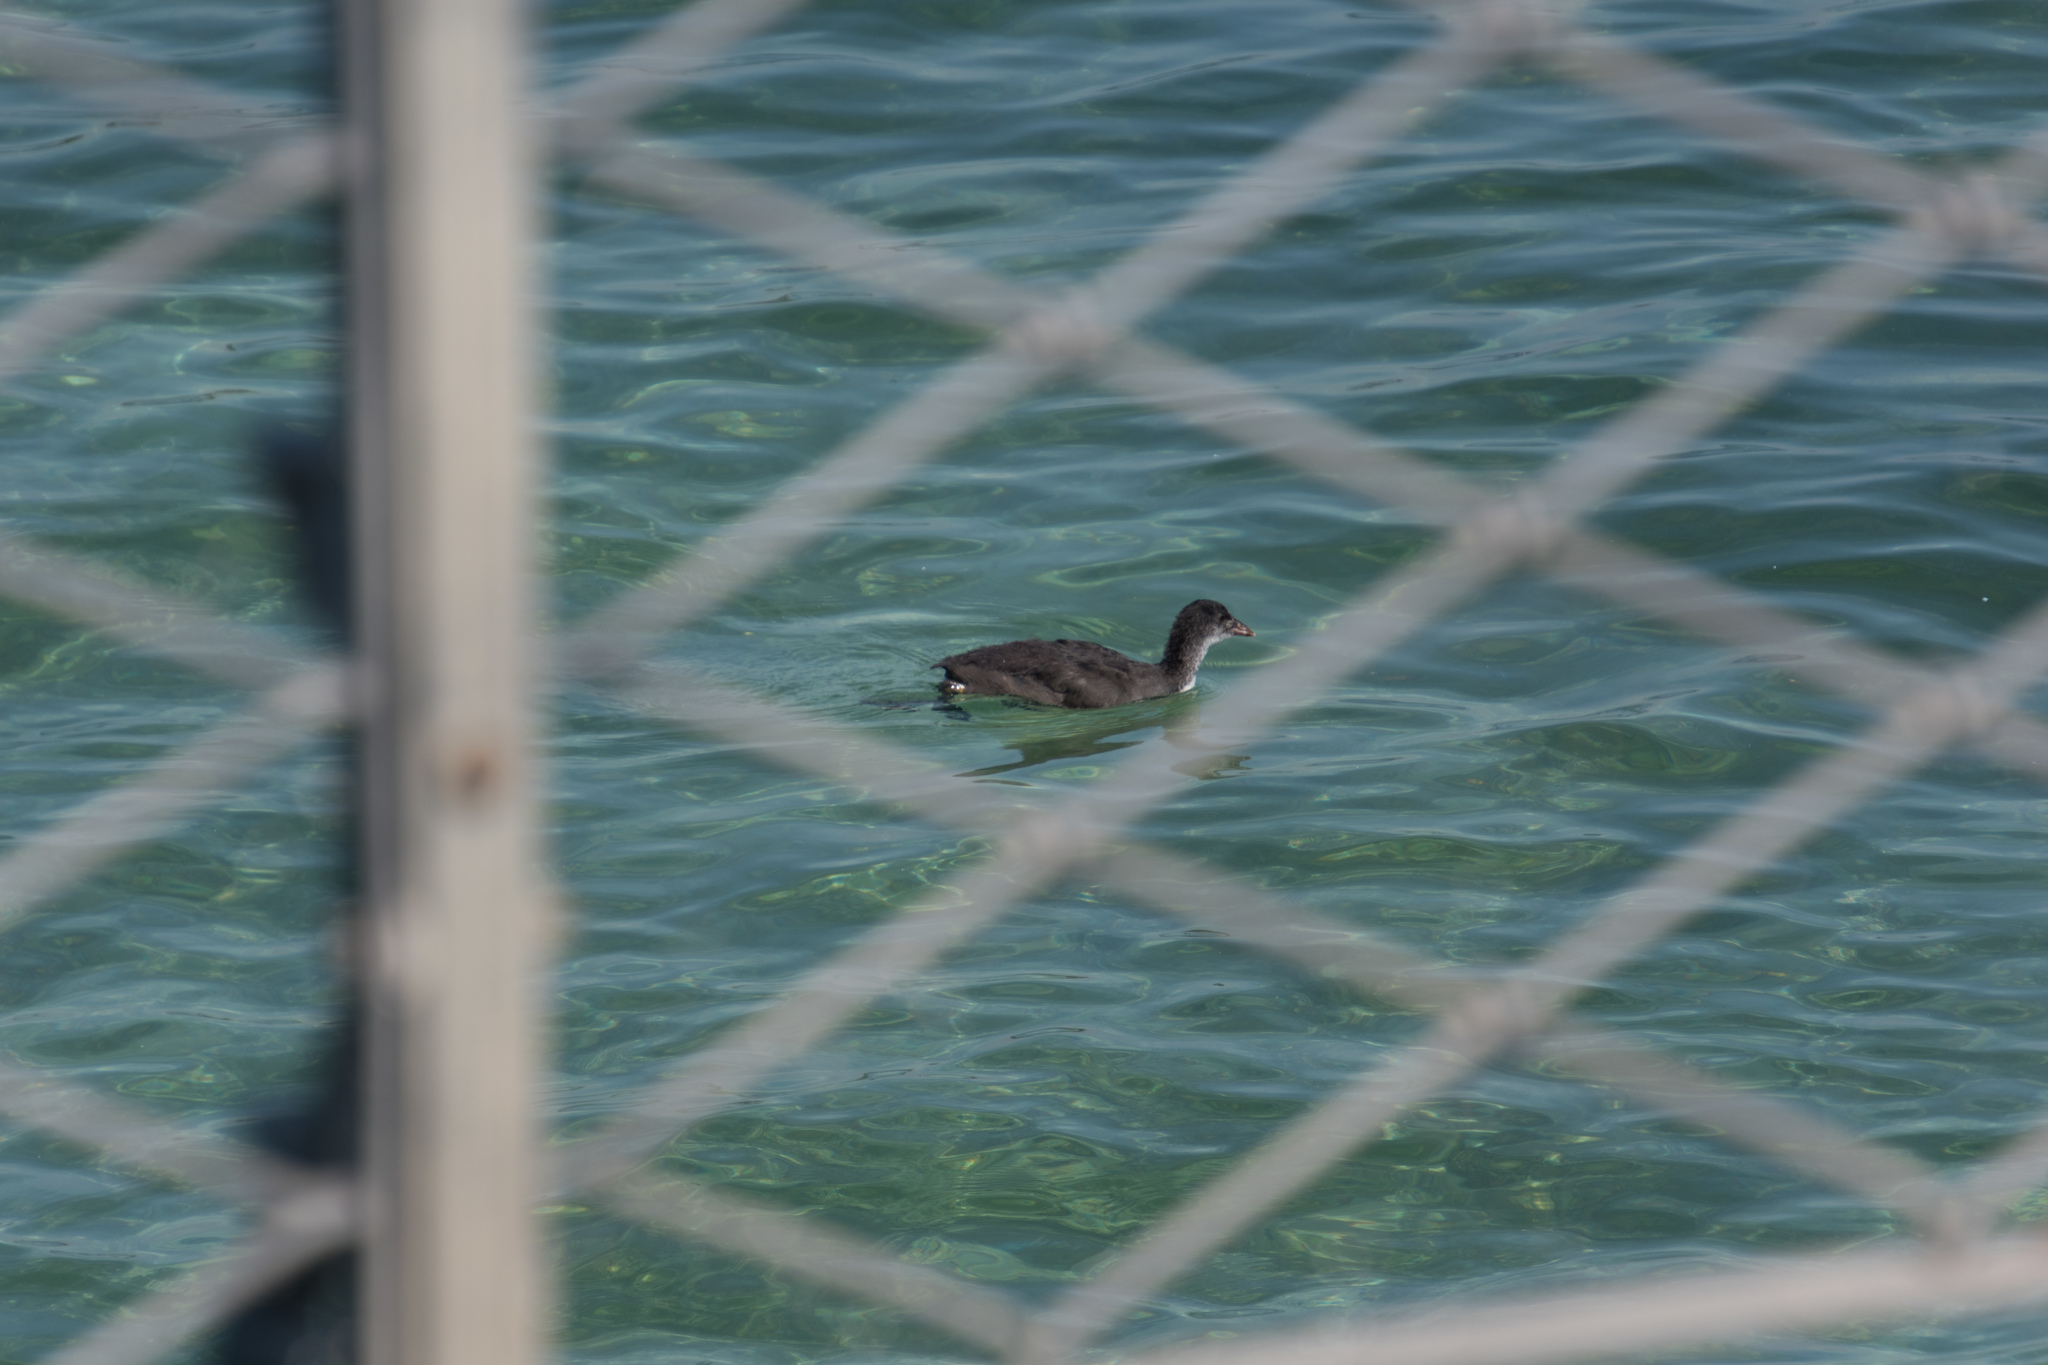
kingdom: Animalia
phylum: Chordata
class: Aves
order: Gruiformes
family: Rallidae
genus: Fulica
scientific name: Fulica atra
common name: Eurasian coot
